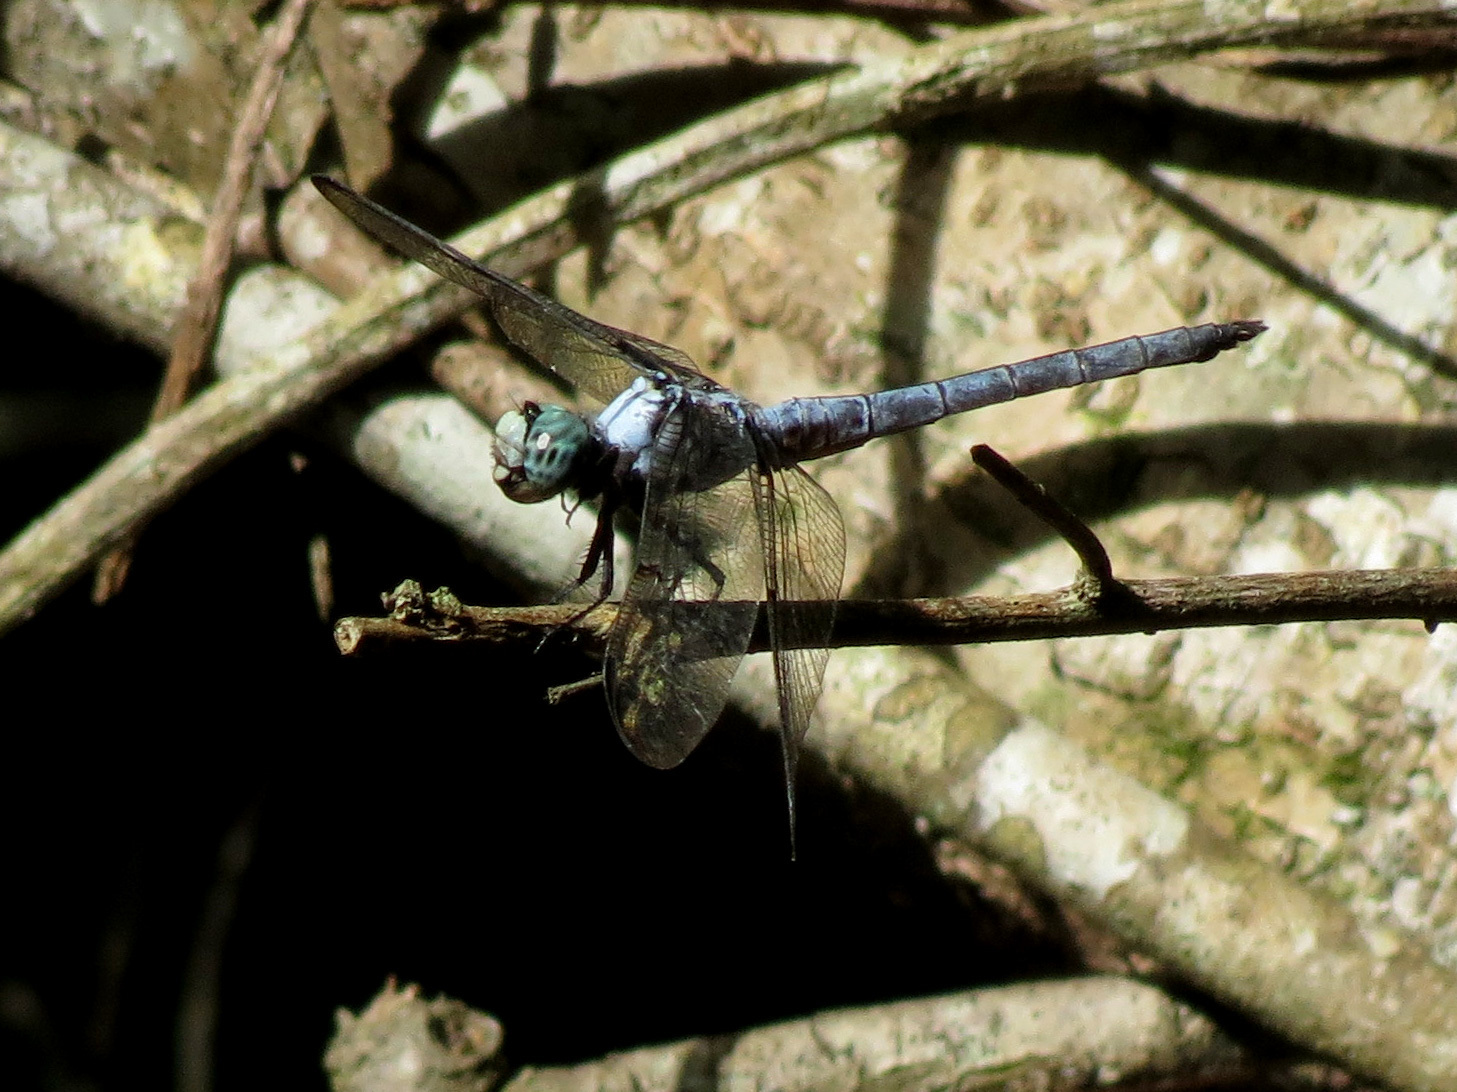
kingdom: Animalia
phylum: Arthropoda
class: Insecta
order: Odonata
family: Libellulidae
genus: Libellula
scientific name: Libellula vibrans
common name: Great blue skimmer
